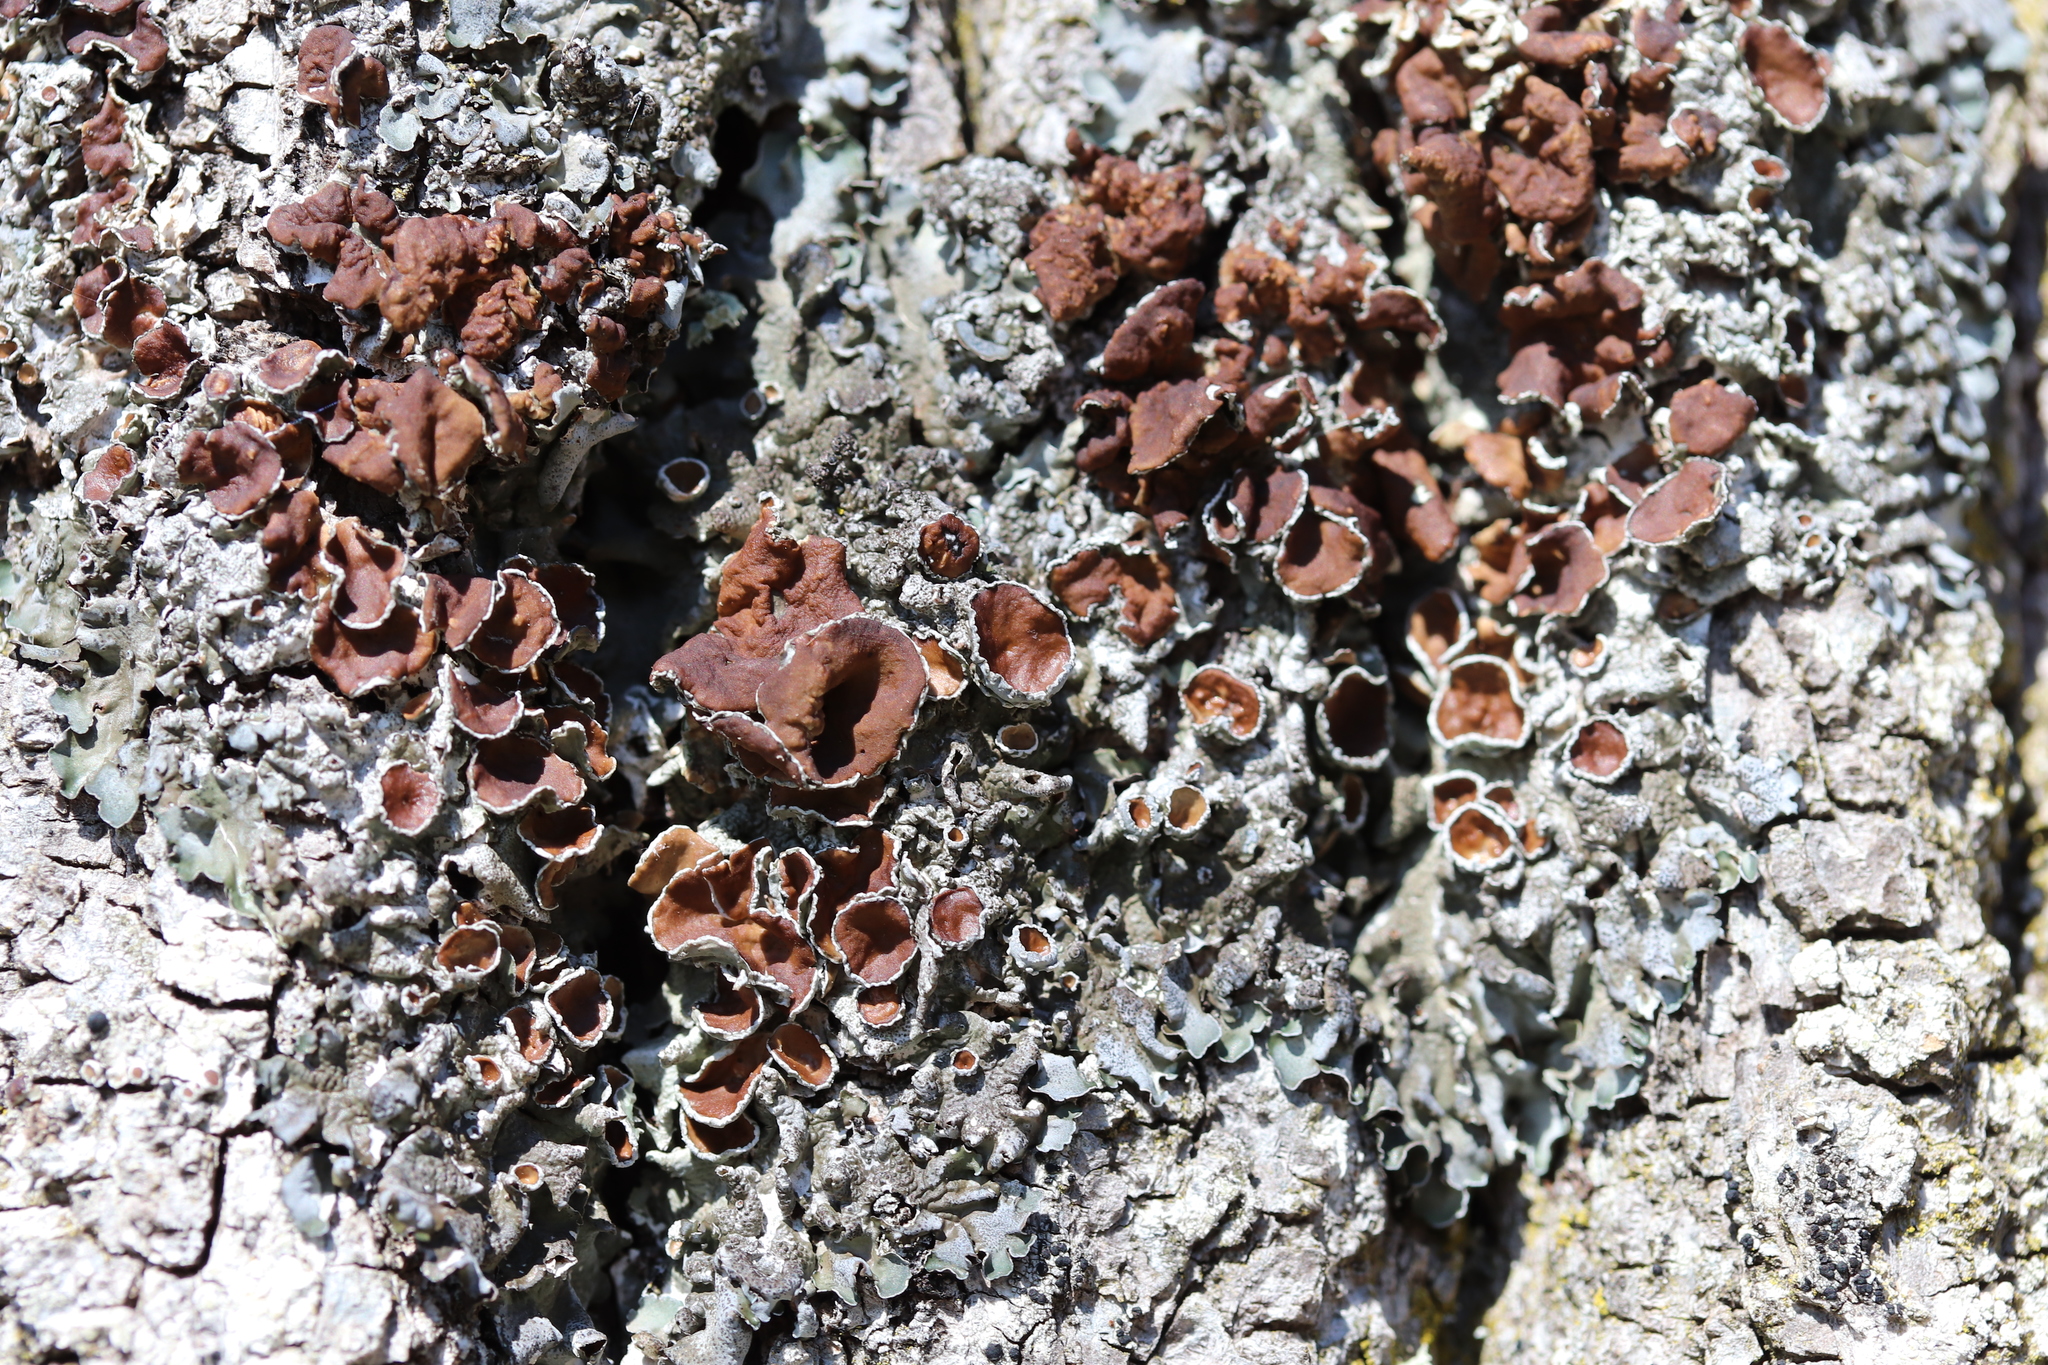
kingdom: Fungi
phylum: Ascomycota
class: Lecanoromycetes
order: Lecanorales
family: Parmeliaceae
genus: Pleurosticta
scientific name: Pleurosticta acetabulum
